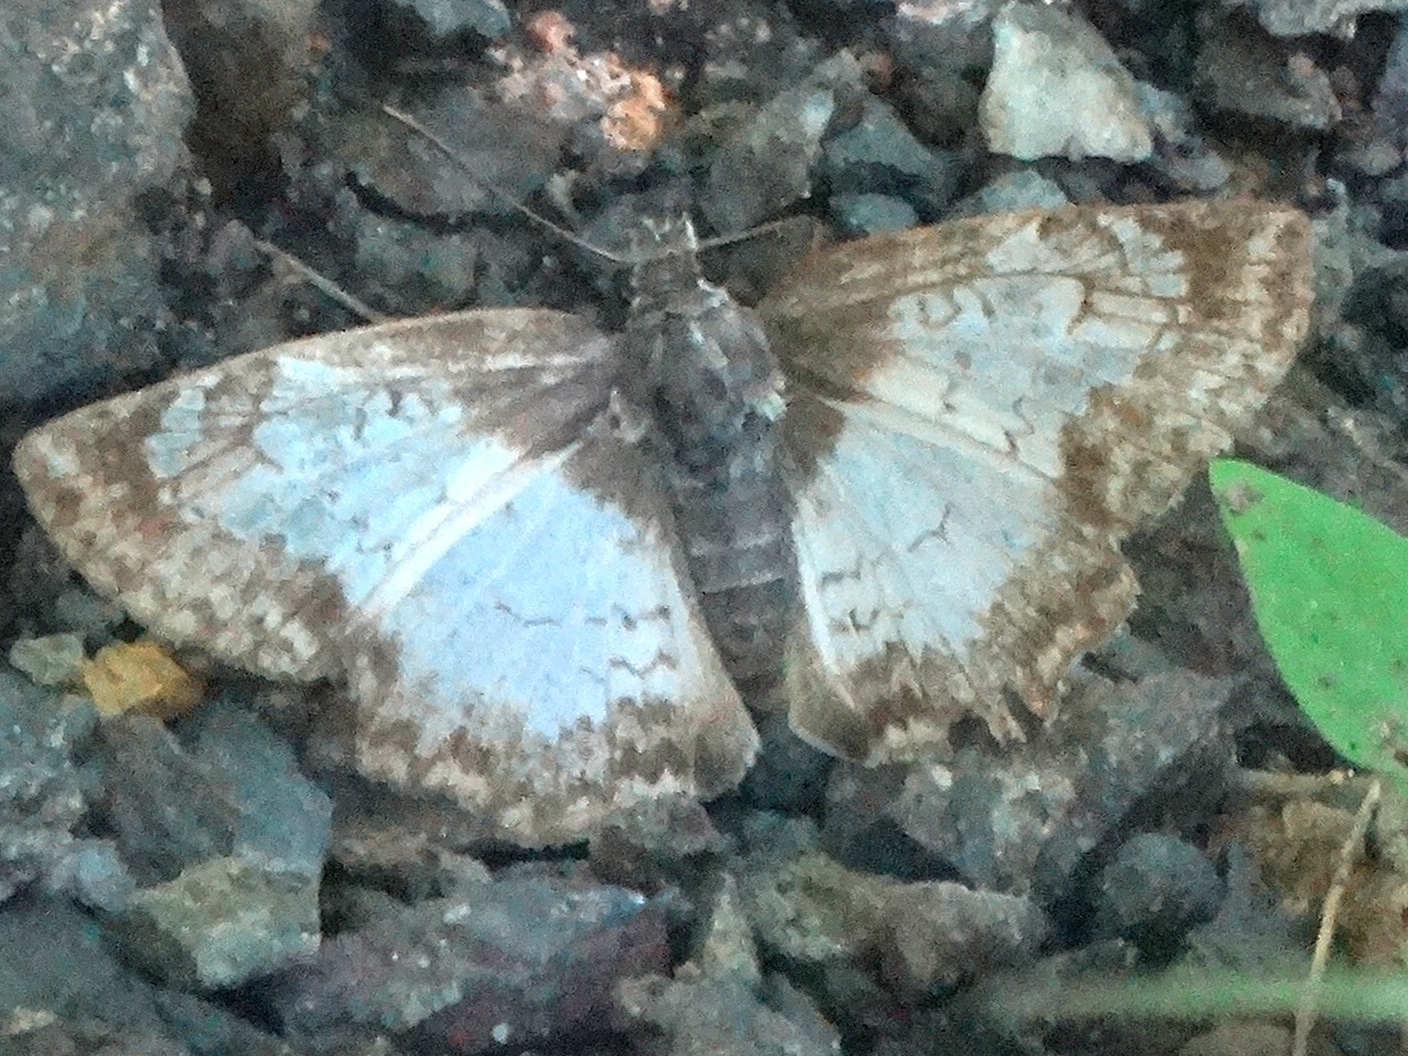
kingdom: Animalia
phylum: Arthropoda
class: Insecta
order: Lepidoptera
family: Hesperiidae
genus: Antigonus
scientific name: Antigonus emorsa
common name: White spurwing
